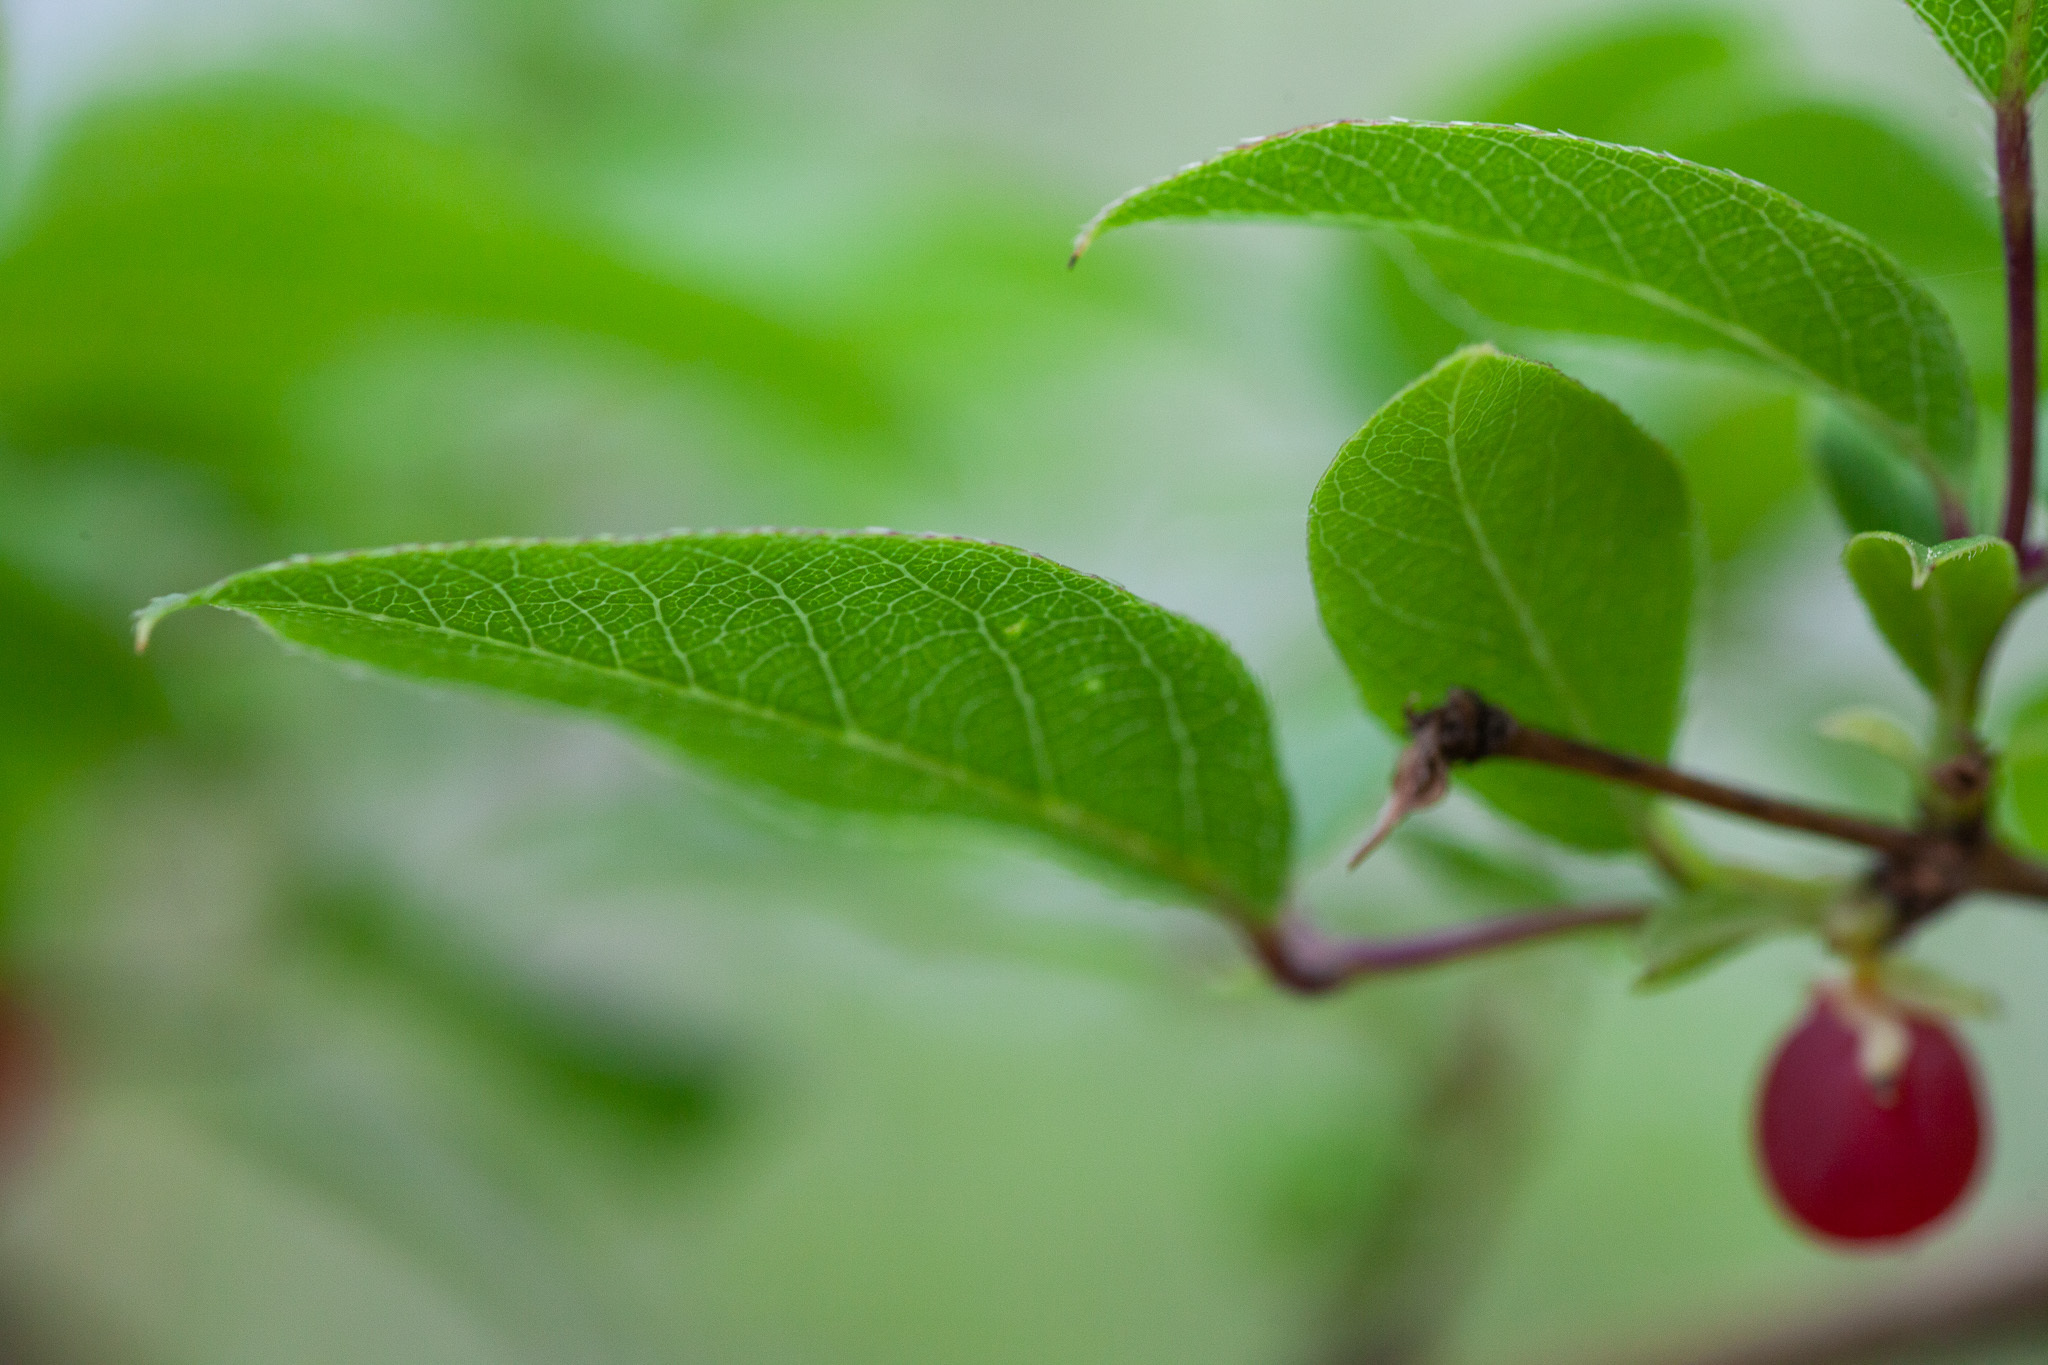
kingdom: Plantae
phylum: Tracheophyta
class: Magnoliopsida
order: Dipsacales
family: Caprifoliaceae
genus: Lonicera
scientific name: Lonicera fragrantissima
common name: Fragrant honeysuckle
